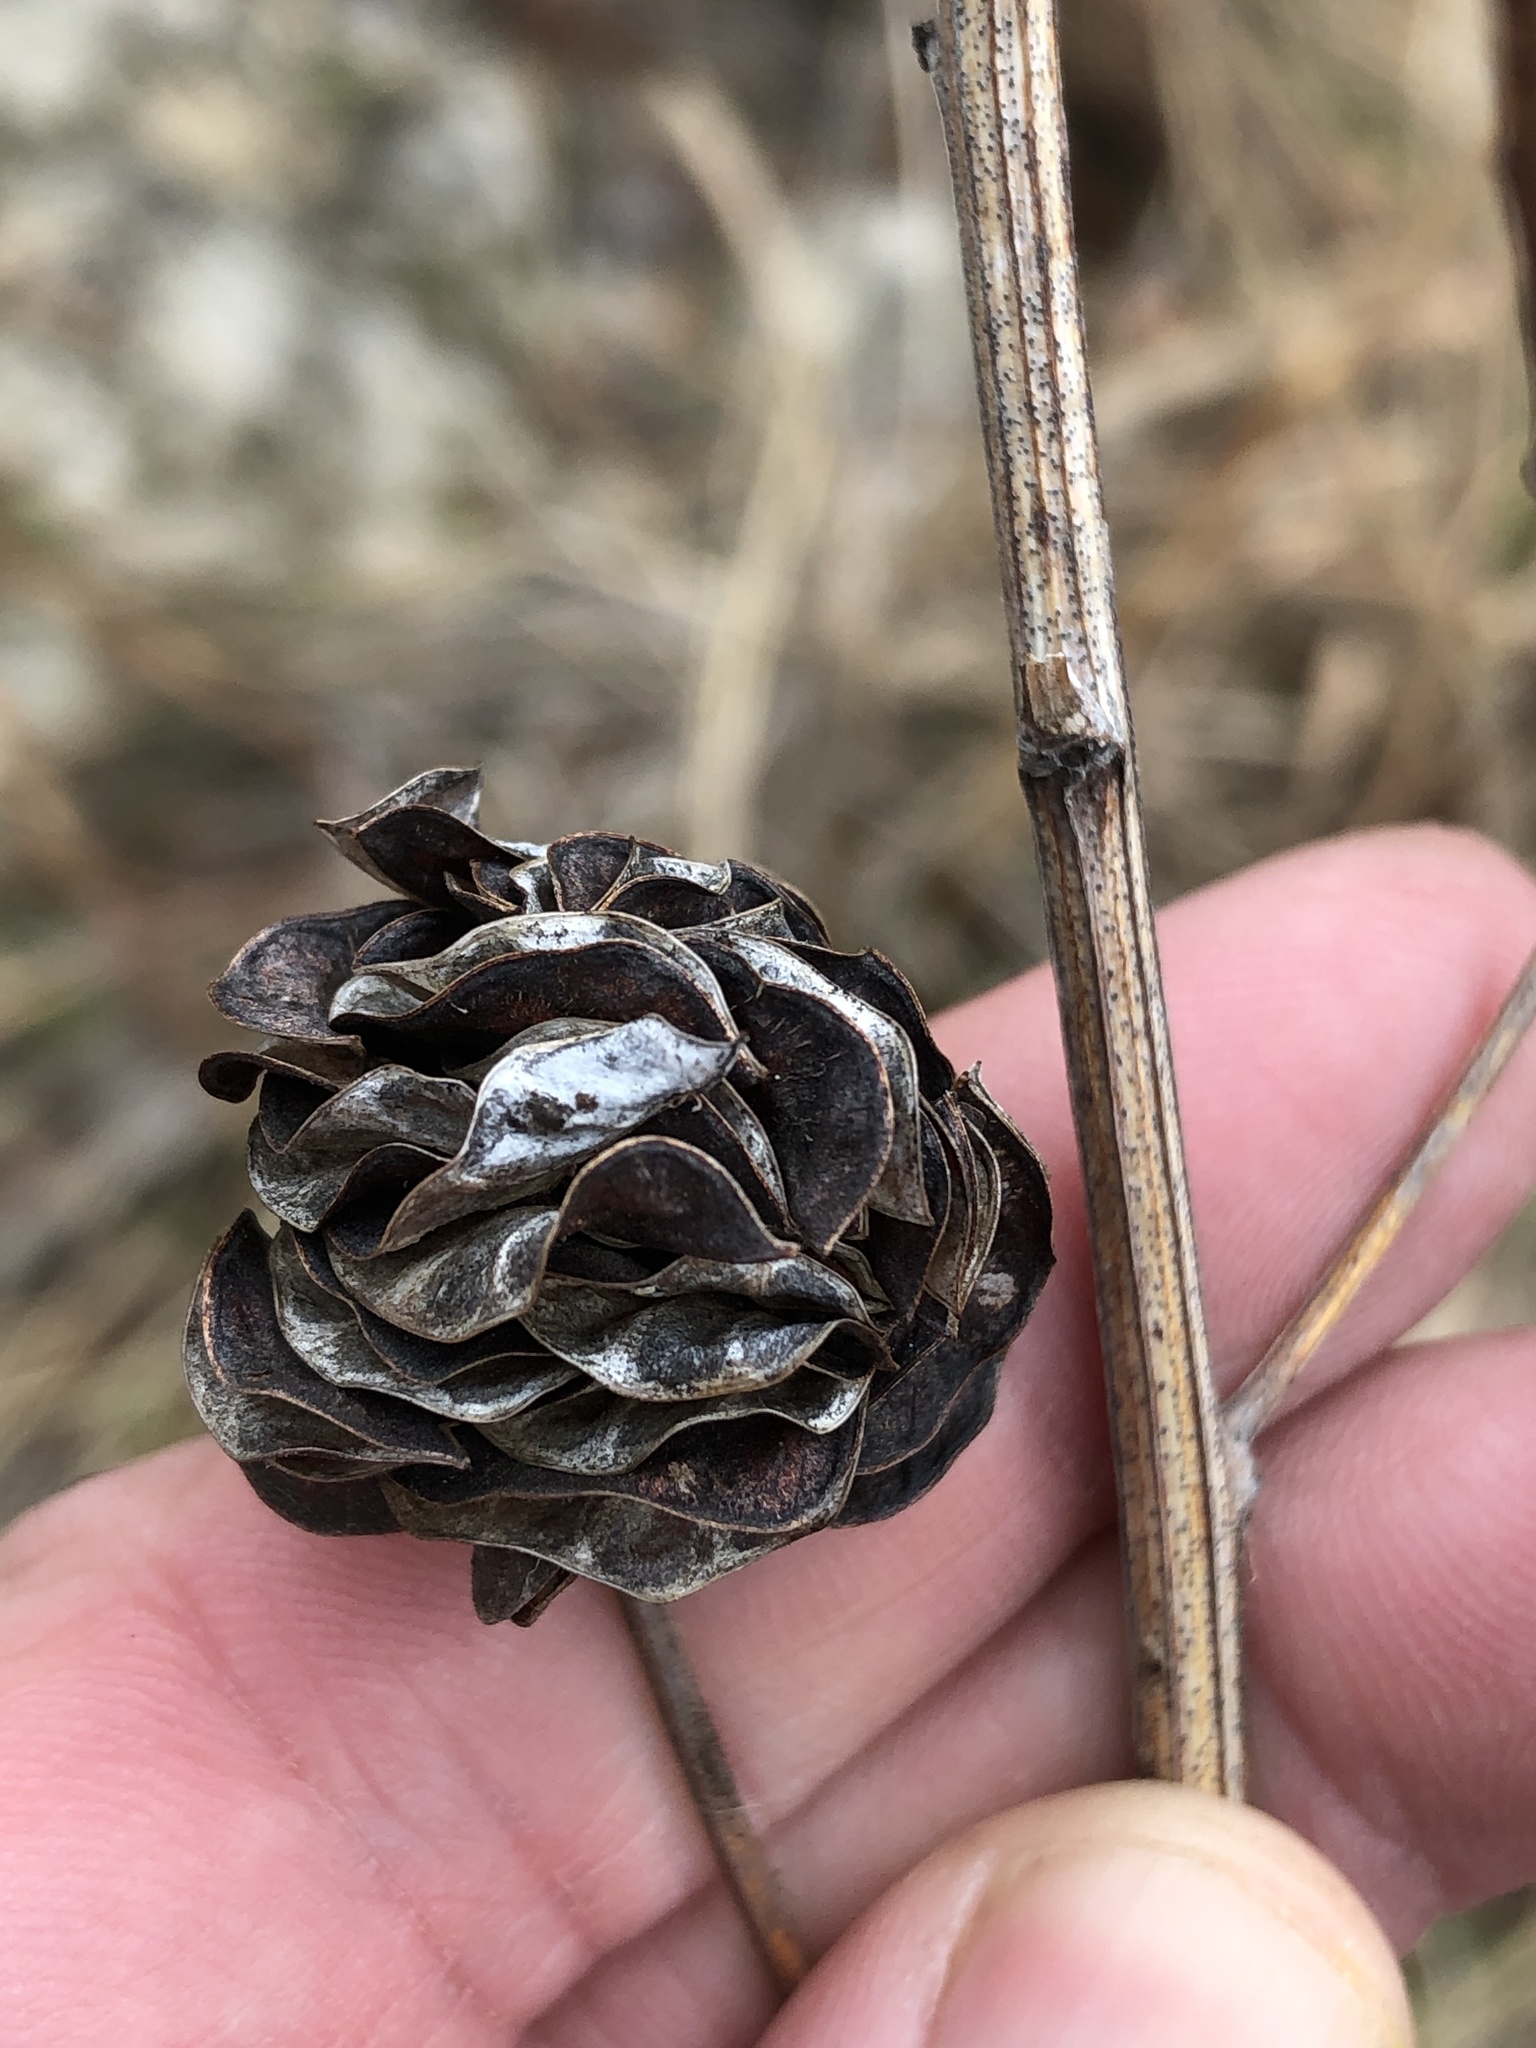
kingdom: Plantae
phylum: Tracheophyta
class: Magnoliopsida
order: Fabales
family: Fabaceae
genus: Desmanthus
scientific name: Desmanthus illinoensis
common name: Illinois bundle-flower
